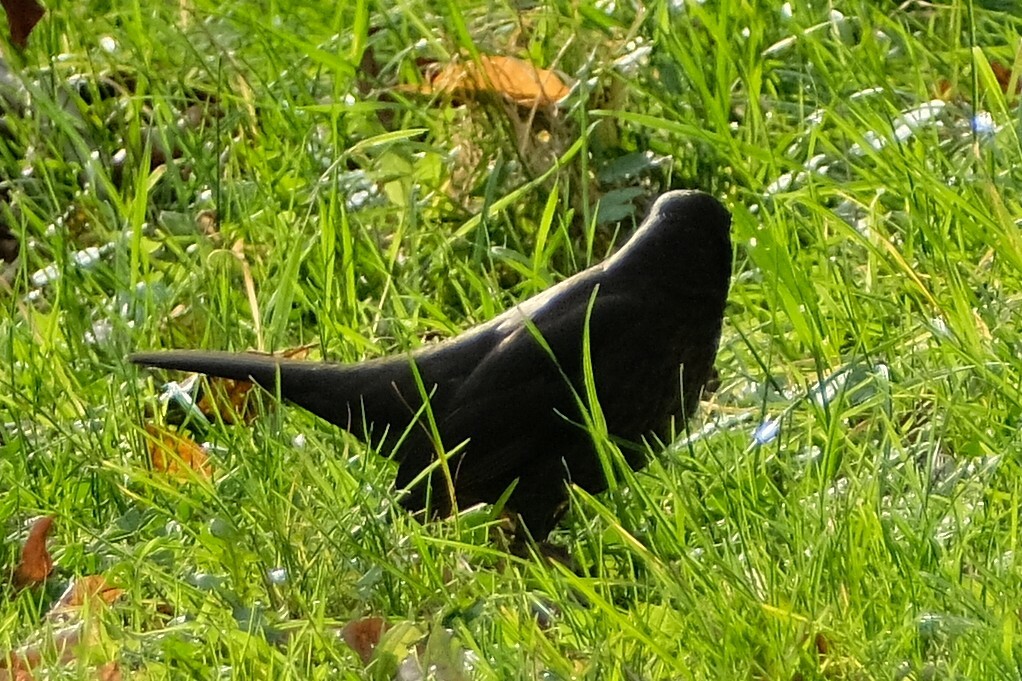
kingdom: Animalia
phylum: Chordata
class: Aves
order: Passeriformes
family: Turdidae
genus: Turdus
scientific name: Turdus merula
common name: Common blackbird
